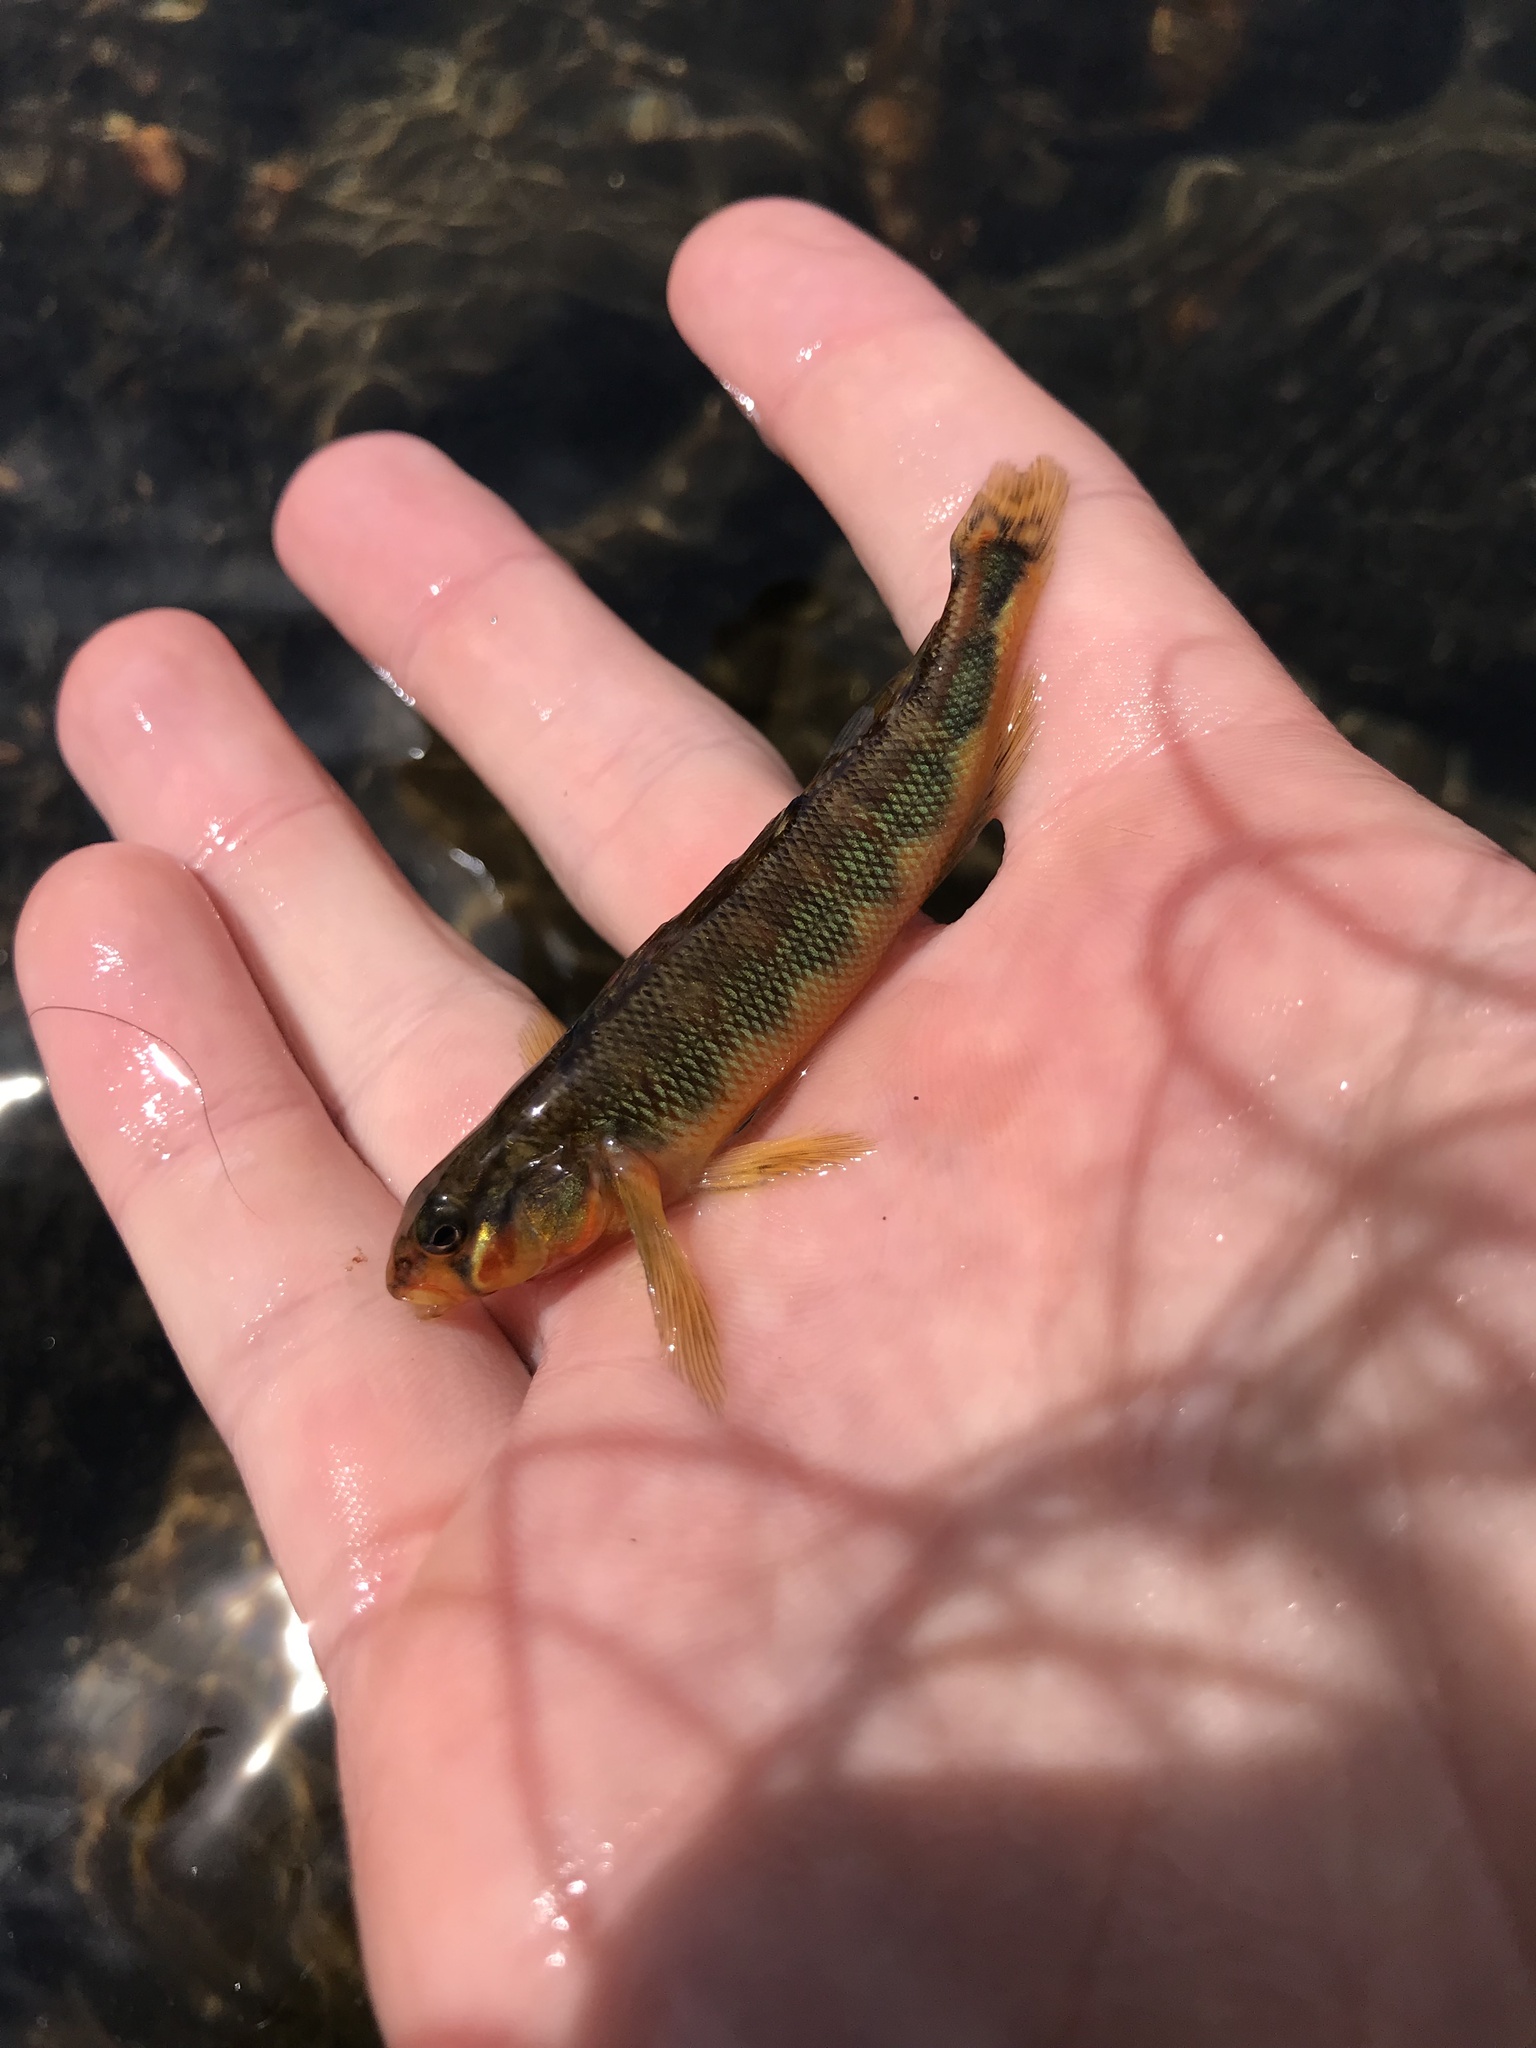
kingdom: Animalia
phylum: Chordata
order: Perciformes
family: Percidae
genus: Percina
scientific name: Percina evides
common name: Gilt darter
